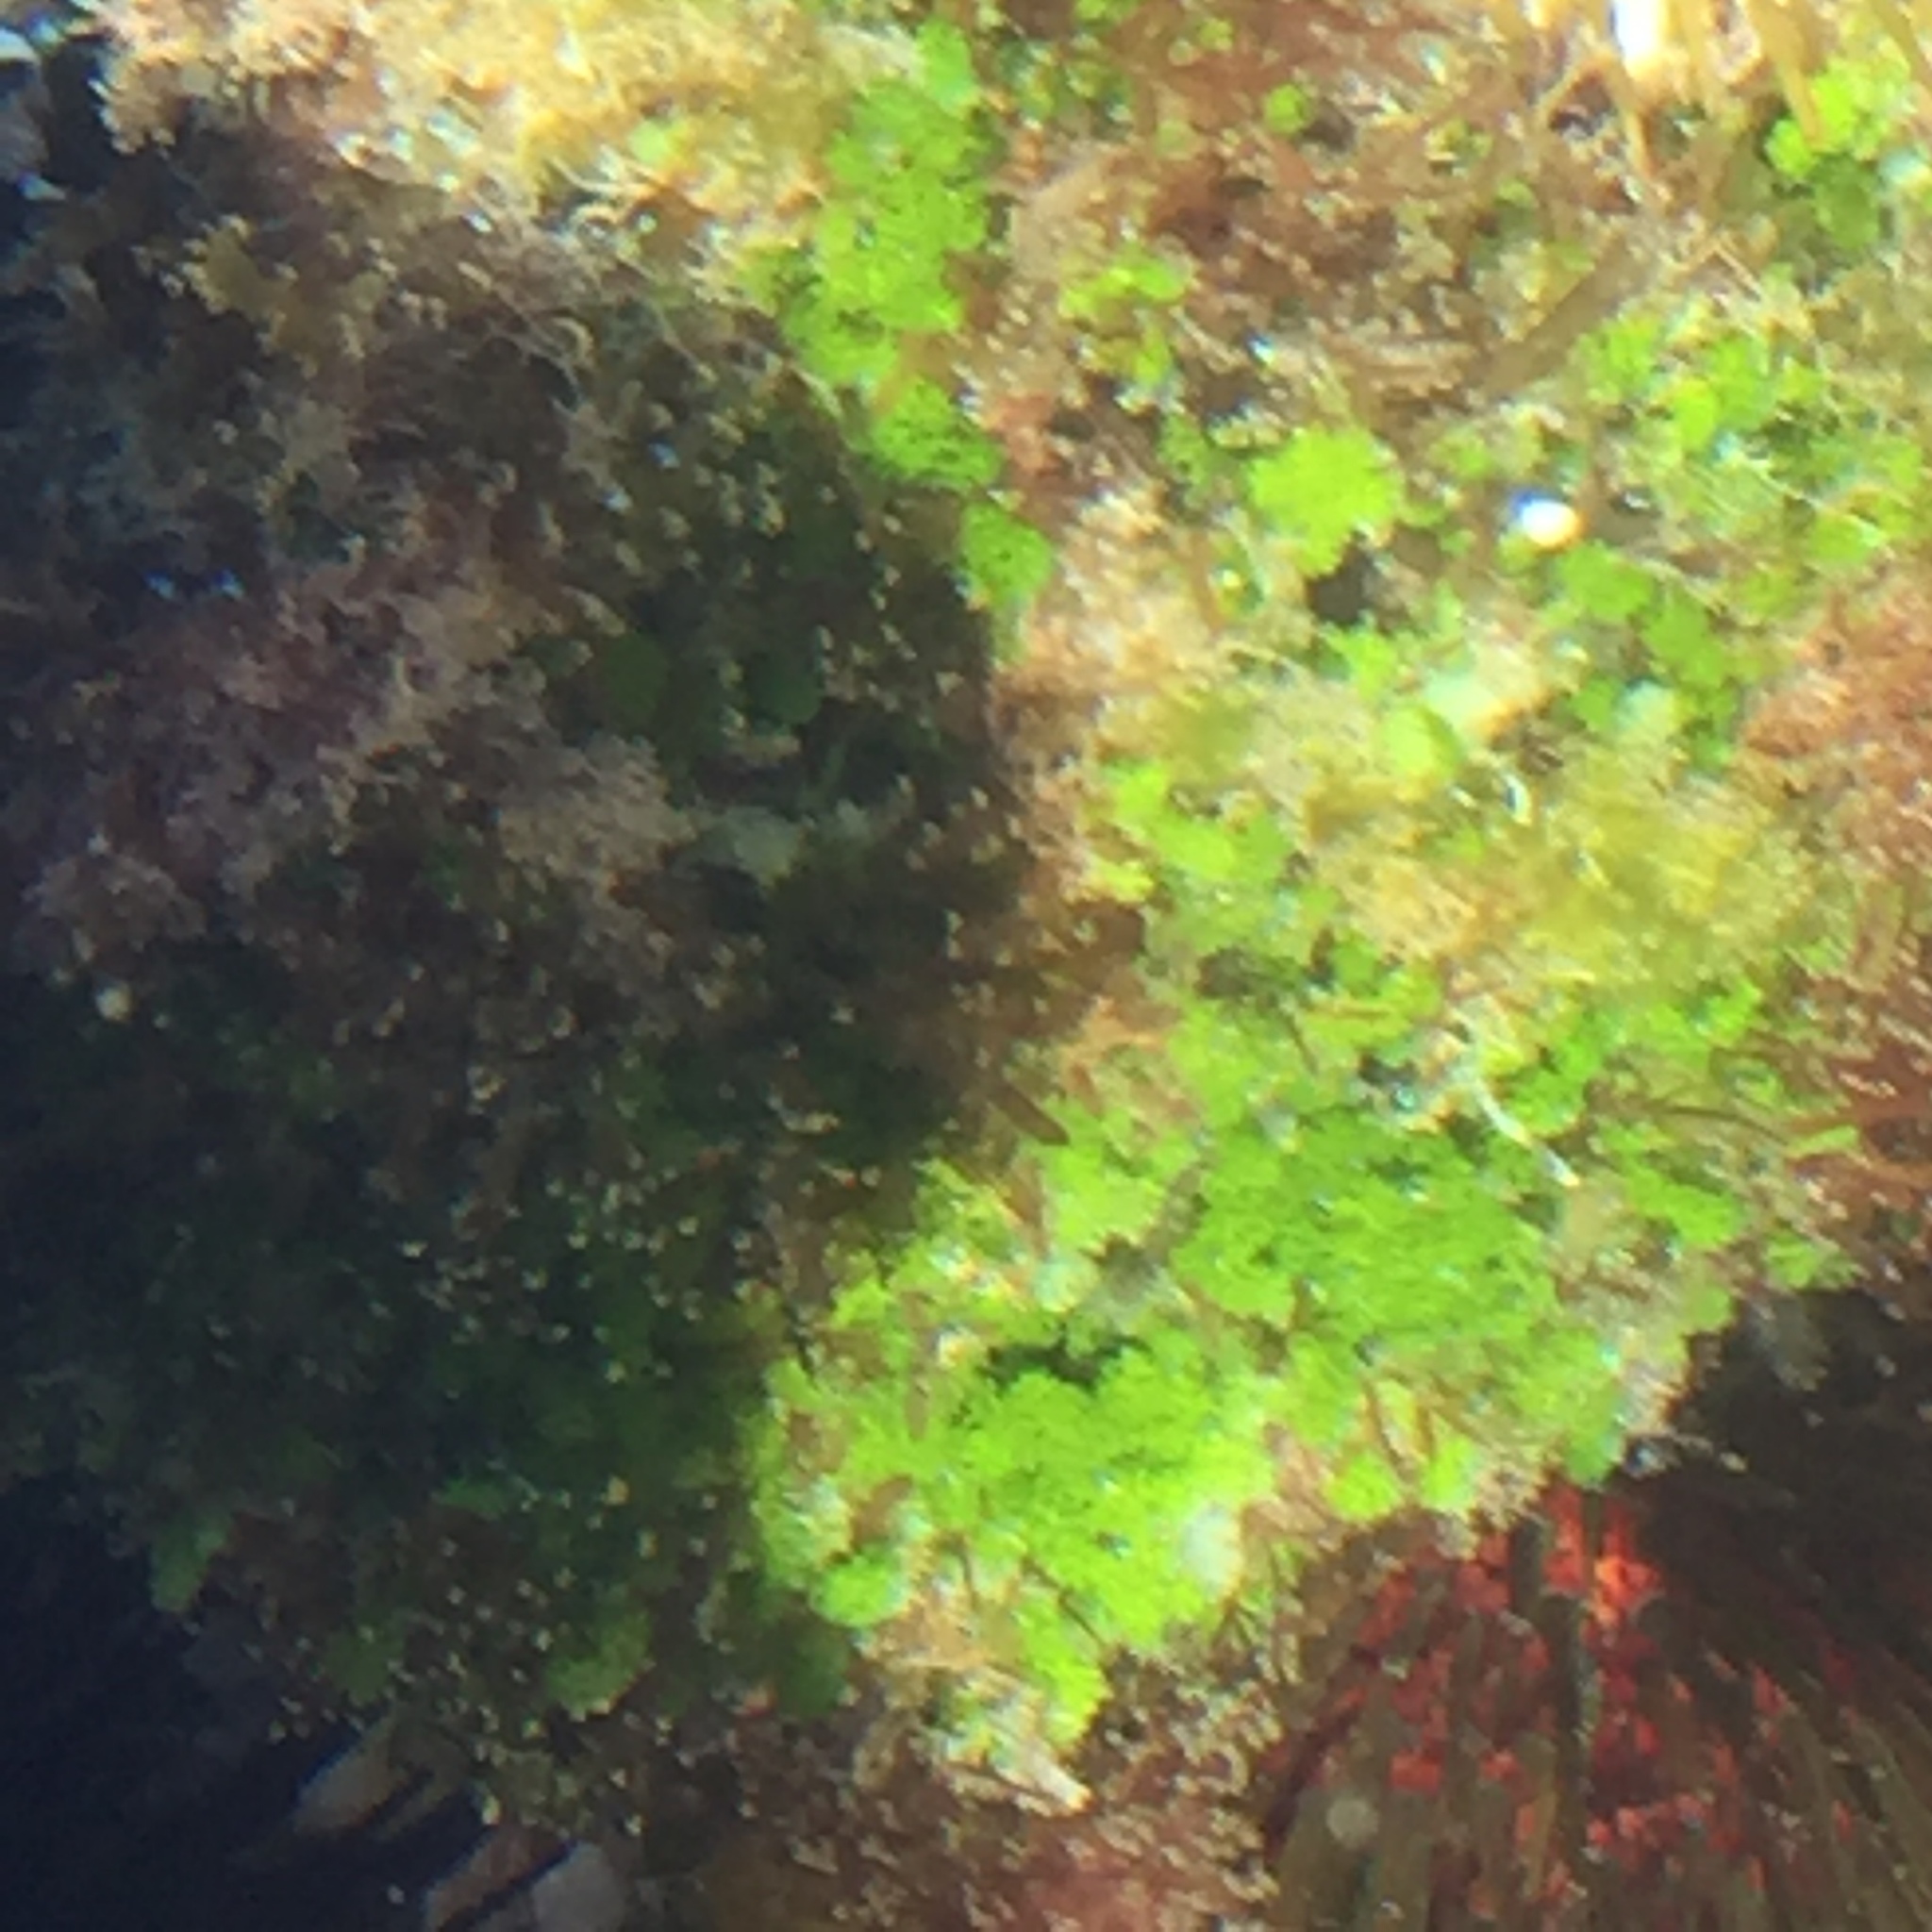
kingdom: Plantae
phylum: Chlorophyta
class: Ulvophyceae
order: Ulvales
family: Ulvaceae
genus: Ulva
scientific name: Ulva lactuca
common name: Sea lettuce
